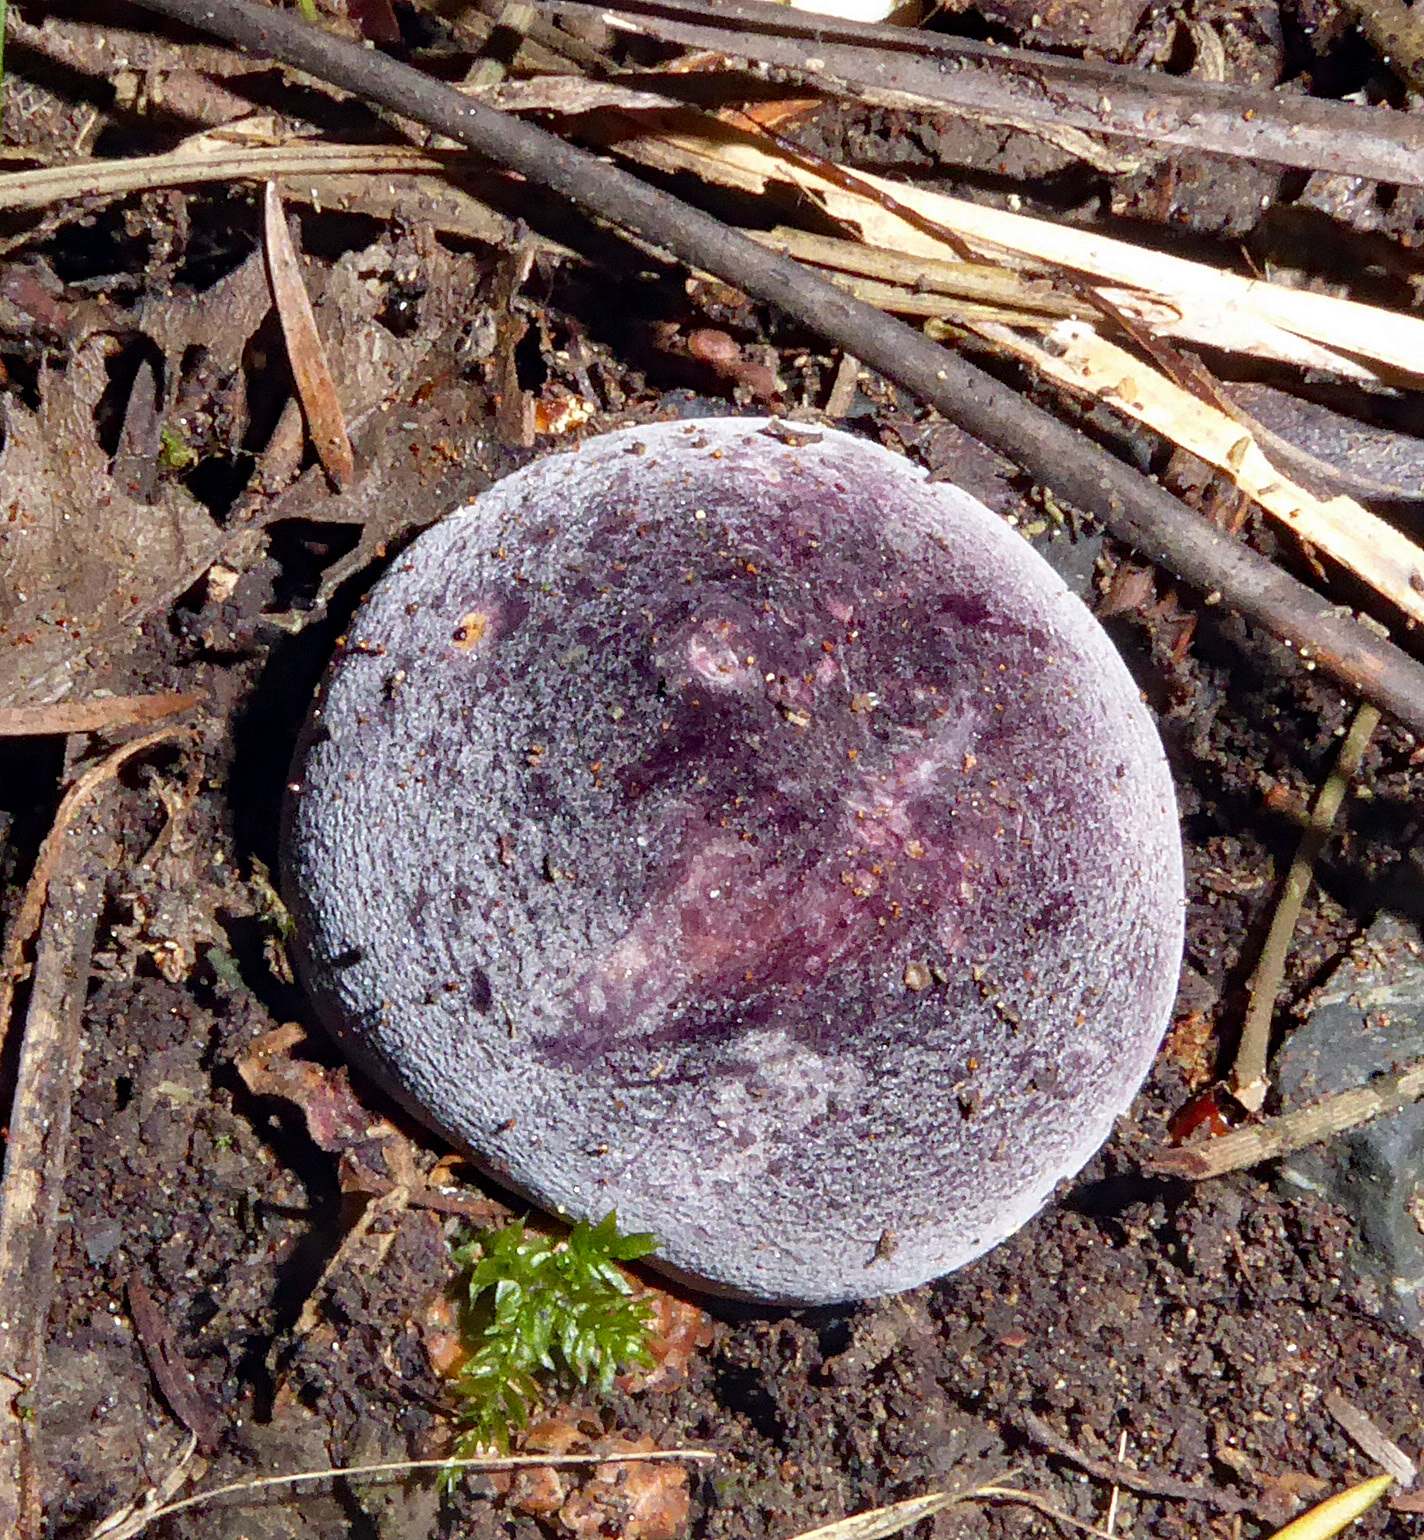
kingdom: Fungi
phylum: Basidiomycota
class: Agaricomycetes
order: Russulales
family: Russulaceae
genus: Russula
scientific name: Russula aucklandica
